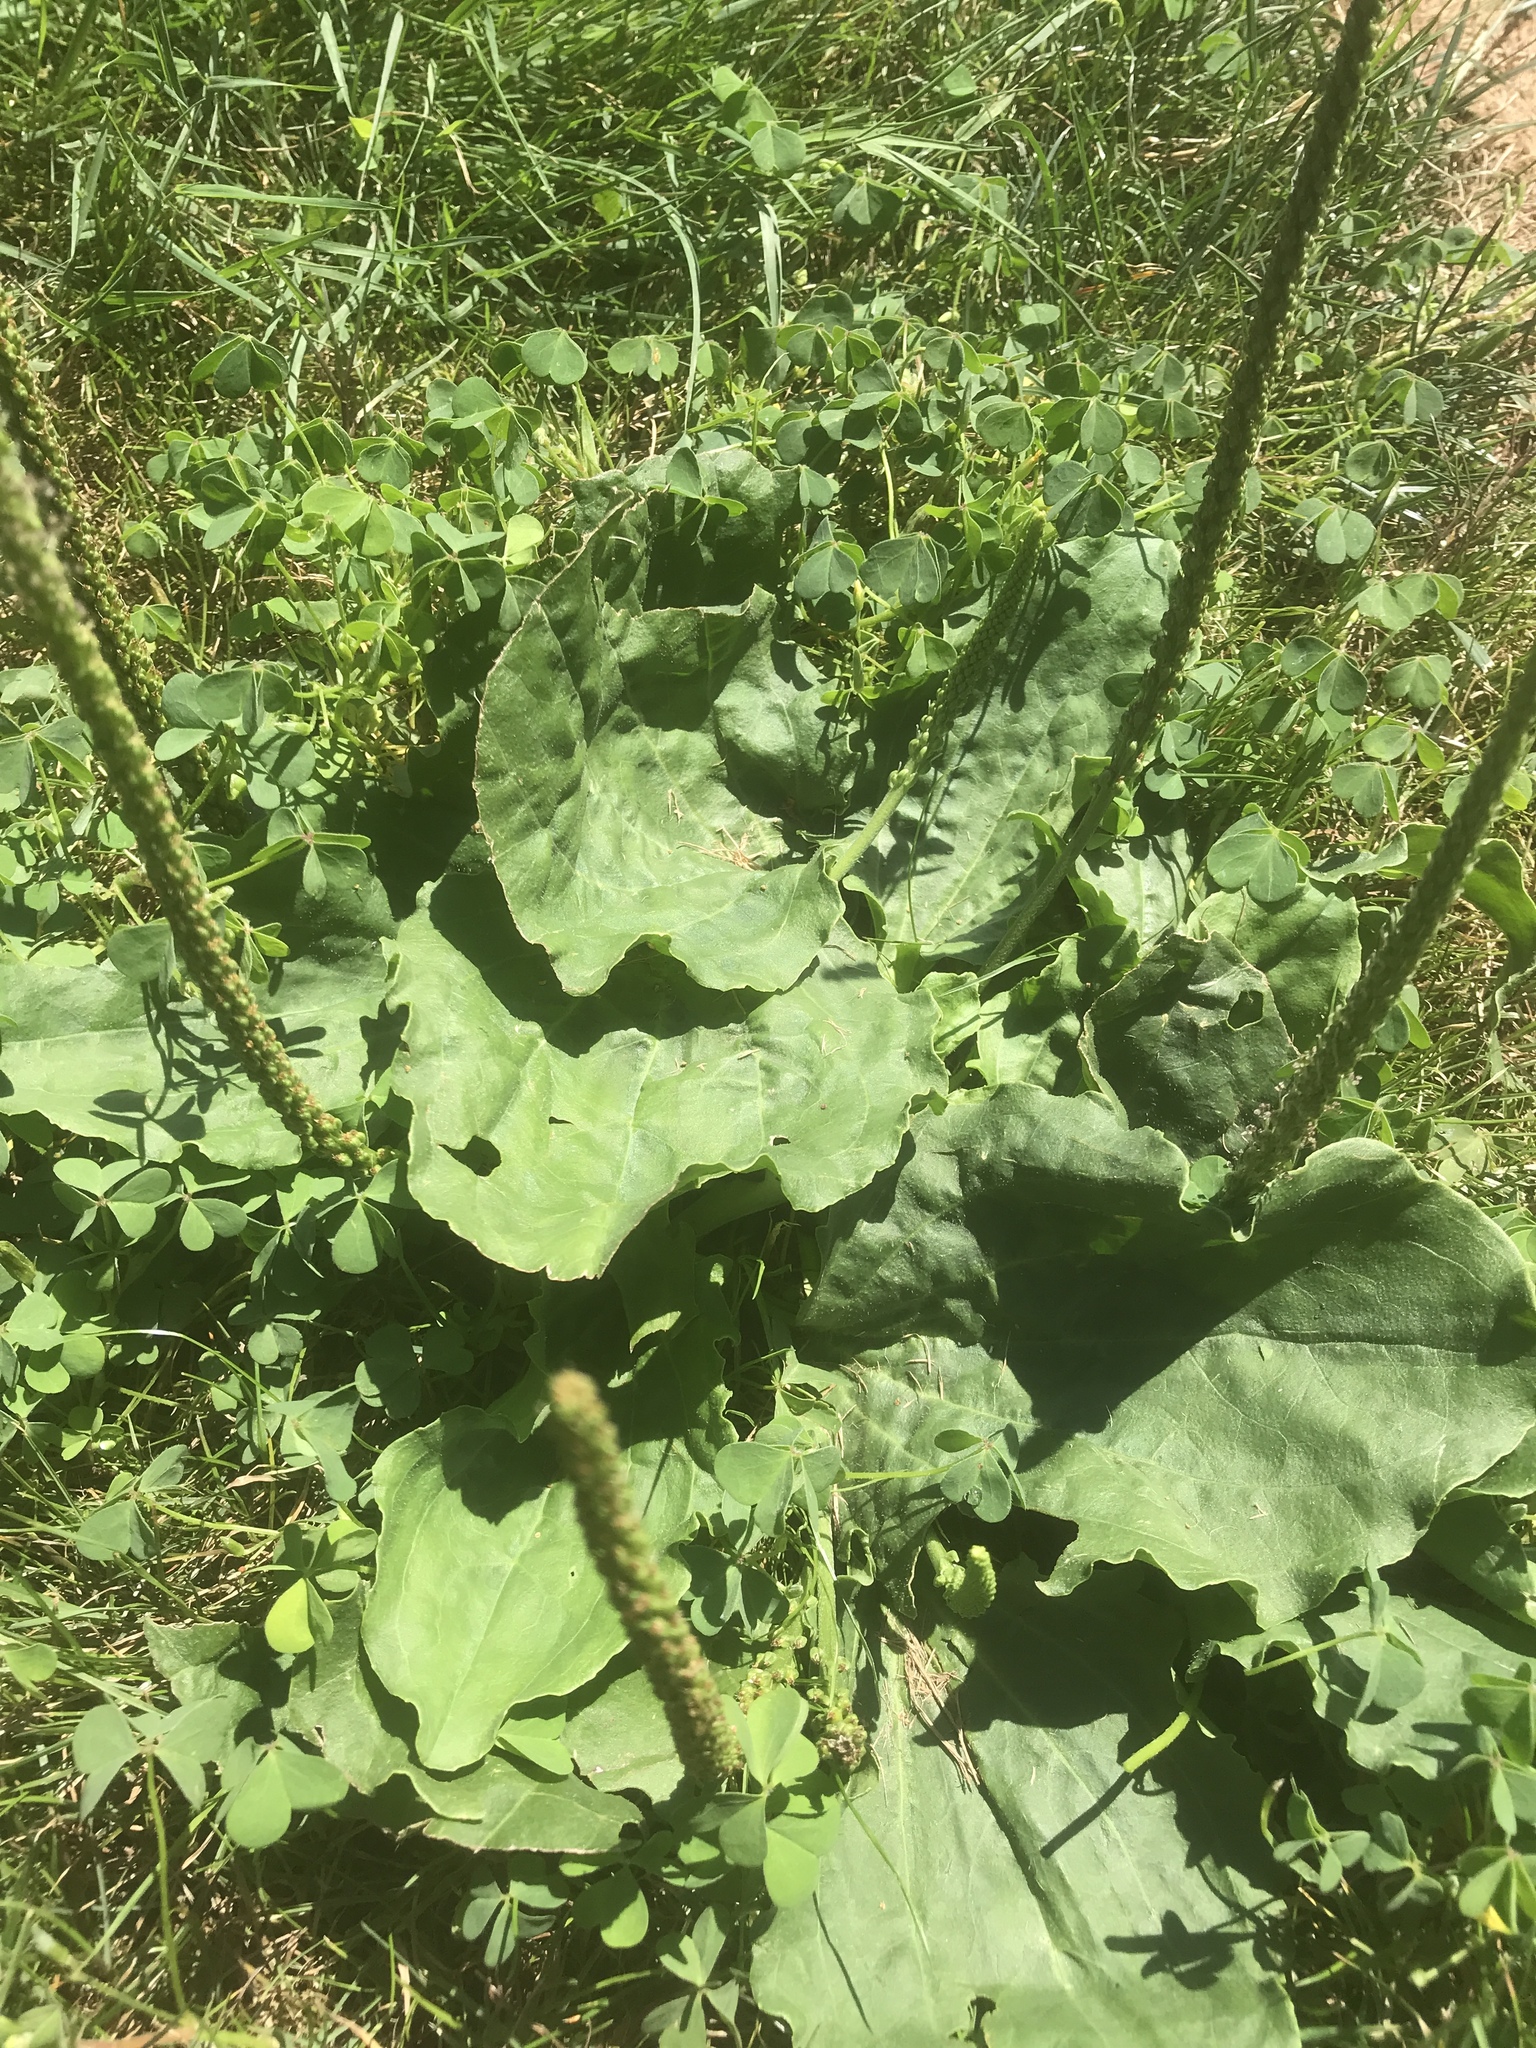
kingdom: Plantae
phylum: Tracheophyta
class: Magnoliopsida
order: Lamiales
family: Plantaginaceae
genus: Plantago
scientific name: Plantago major
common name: Common plantain
